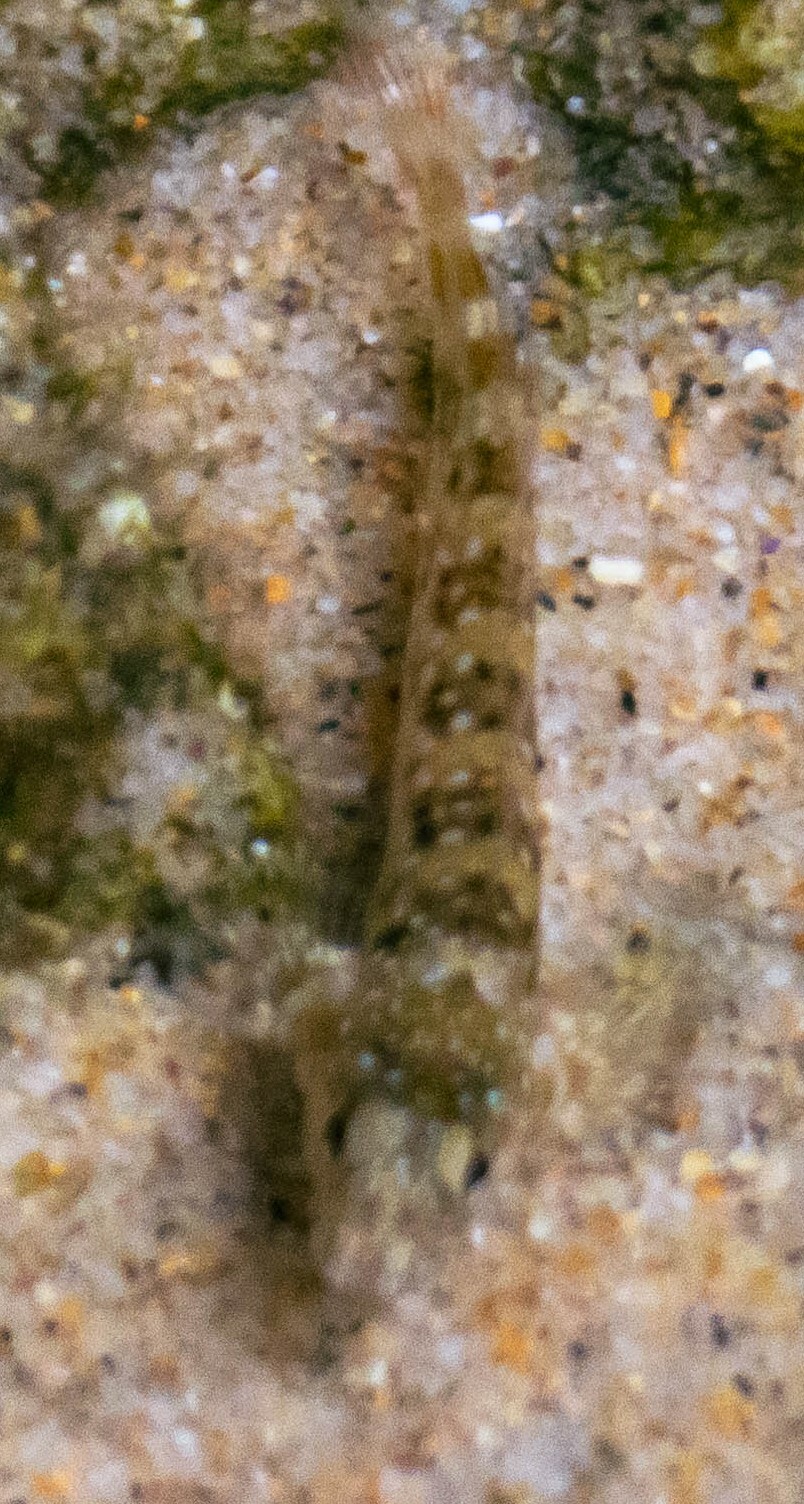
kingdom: Animalia
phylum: Chordata
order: Perciformes
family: Blenniidae
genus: Coryphoblennius
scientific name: Coryphoblennius galerita
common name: Montagu's blenny
